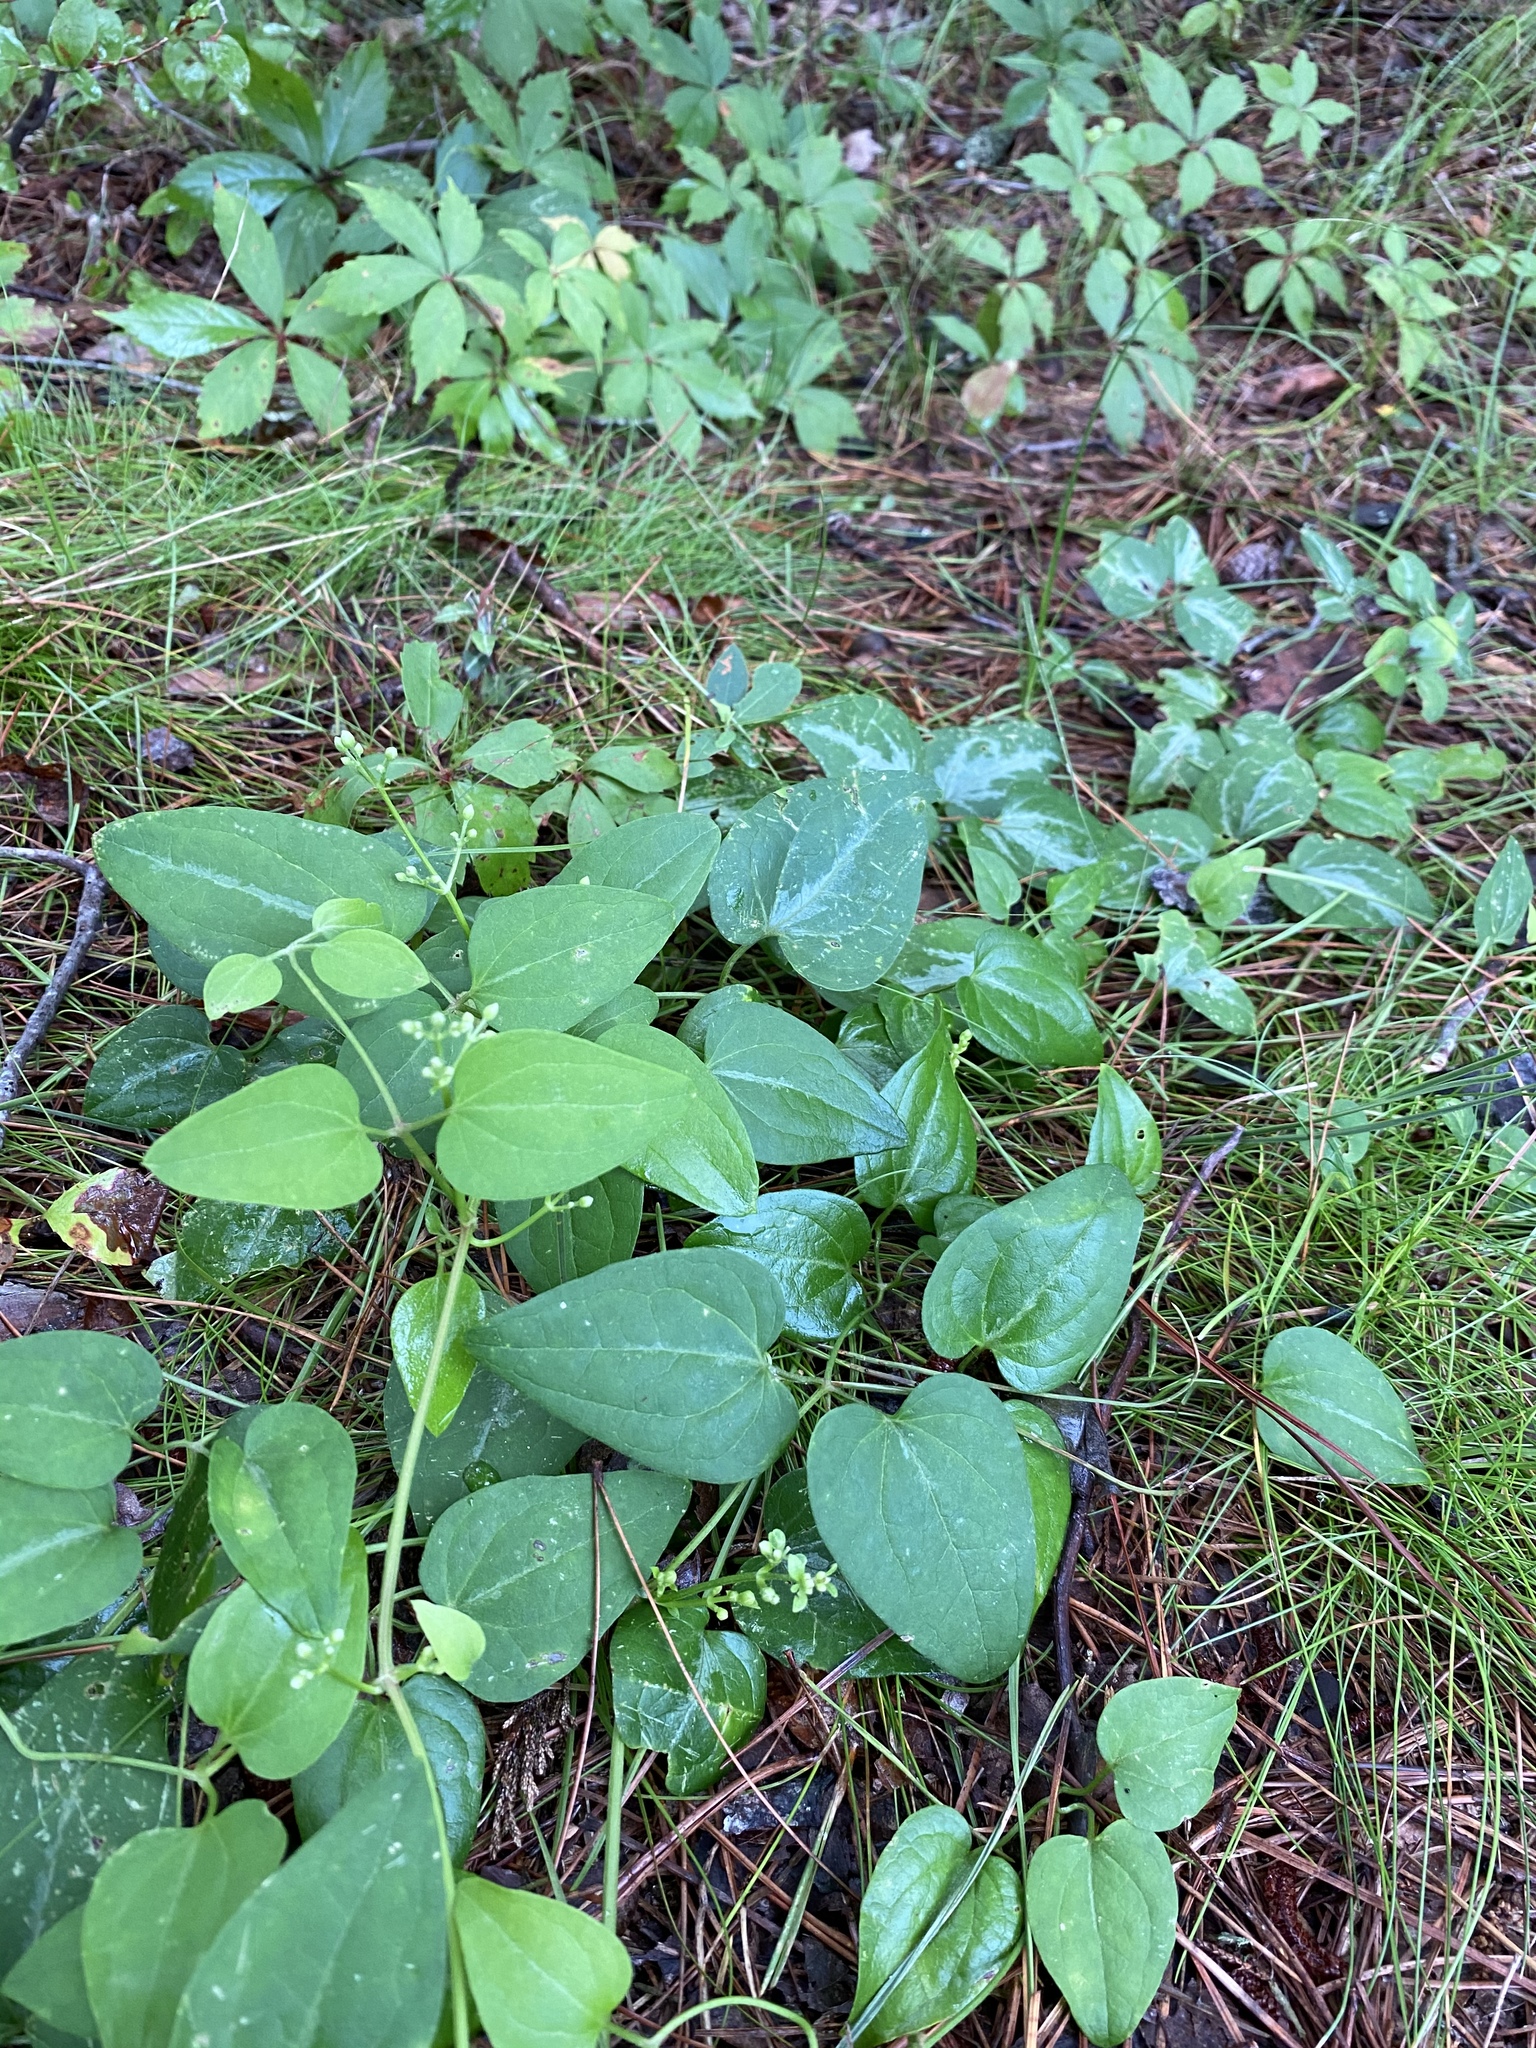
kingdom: Plantae
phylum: Tracheophyta
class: Magnoliopsida
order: Ranunculales
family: Ranunculaceae
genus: Clematis
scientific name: Clematis terniflora
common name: Sweet autumn clematis
